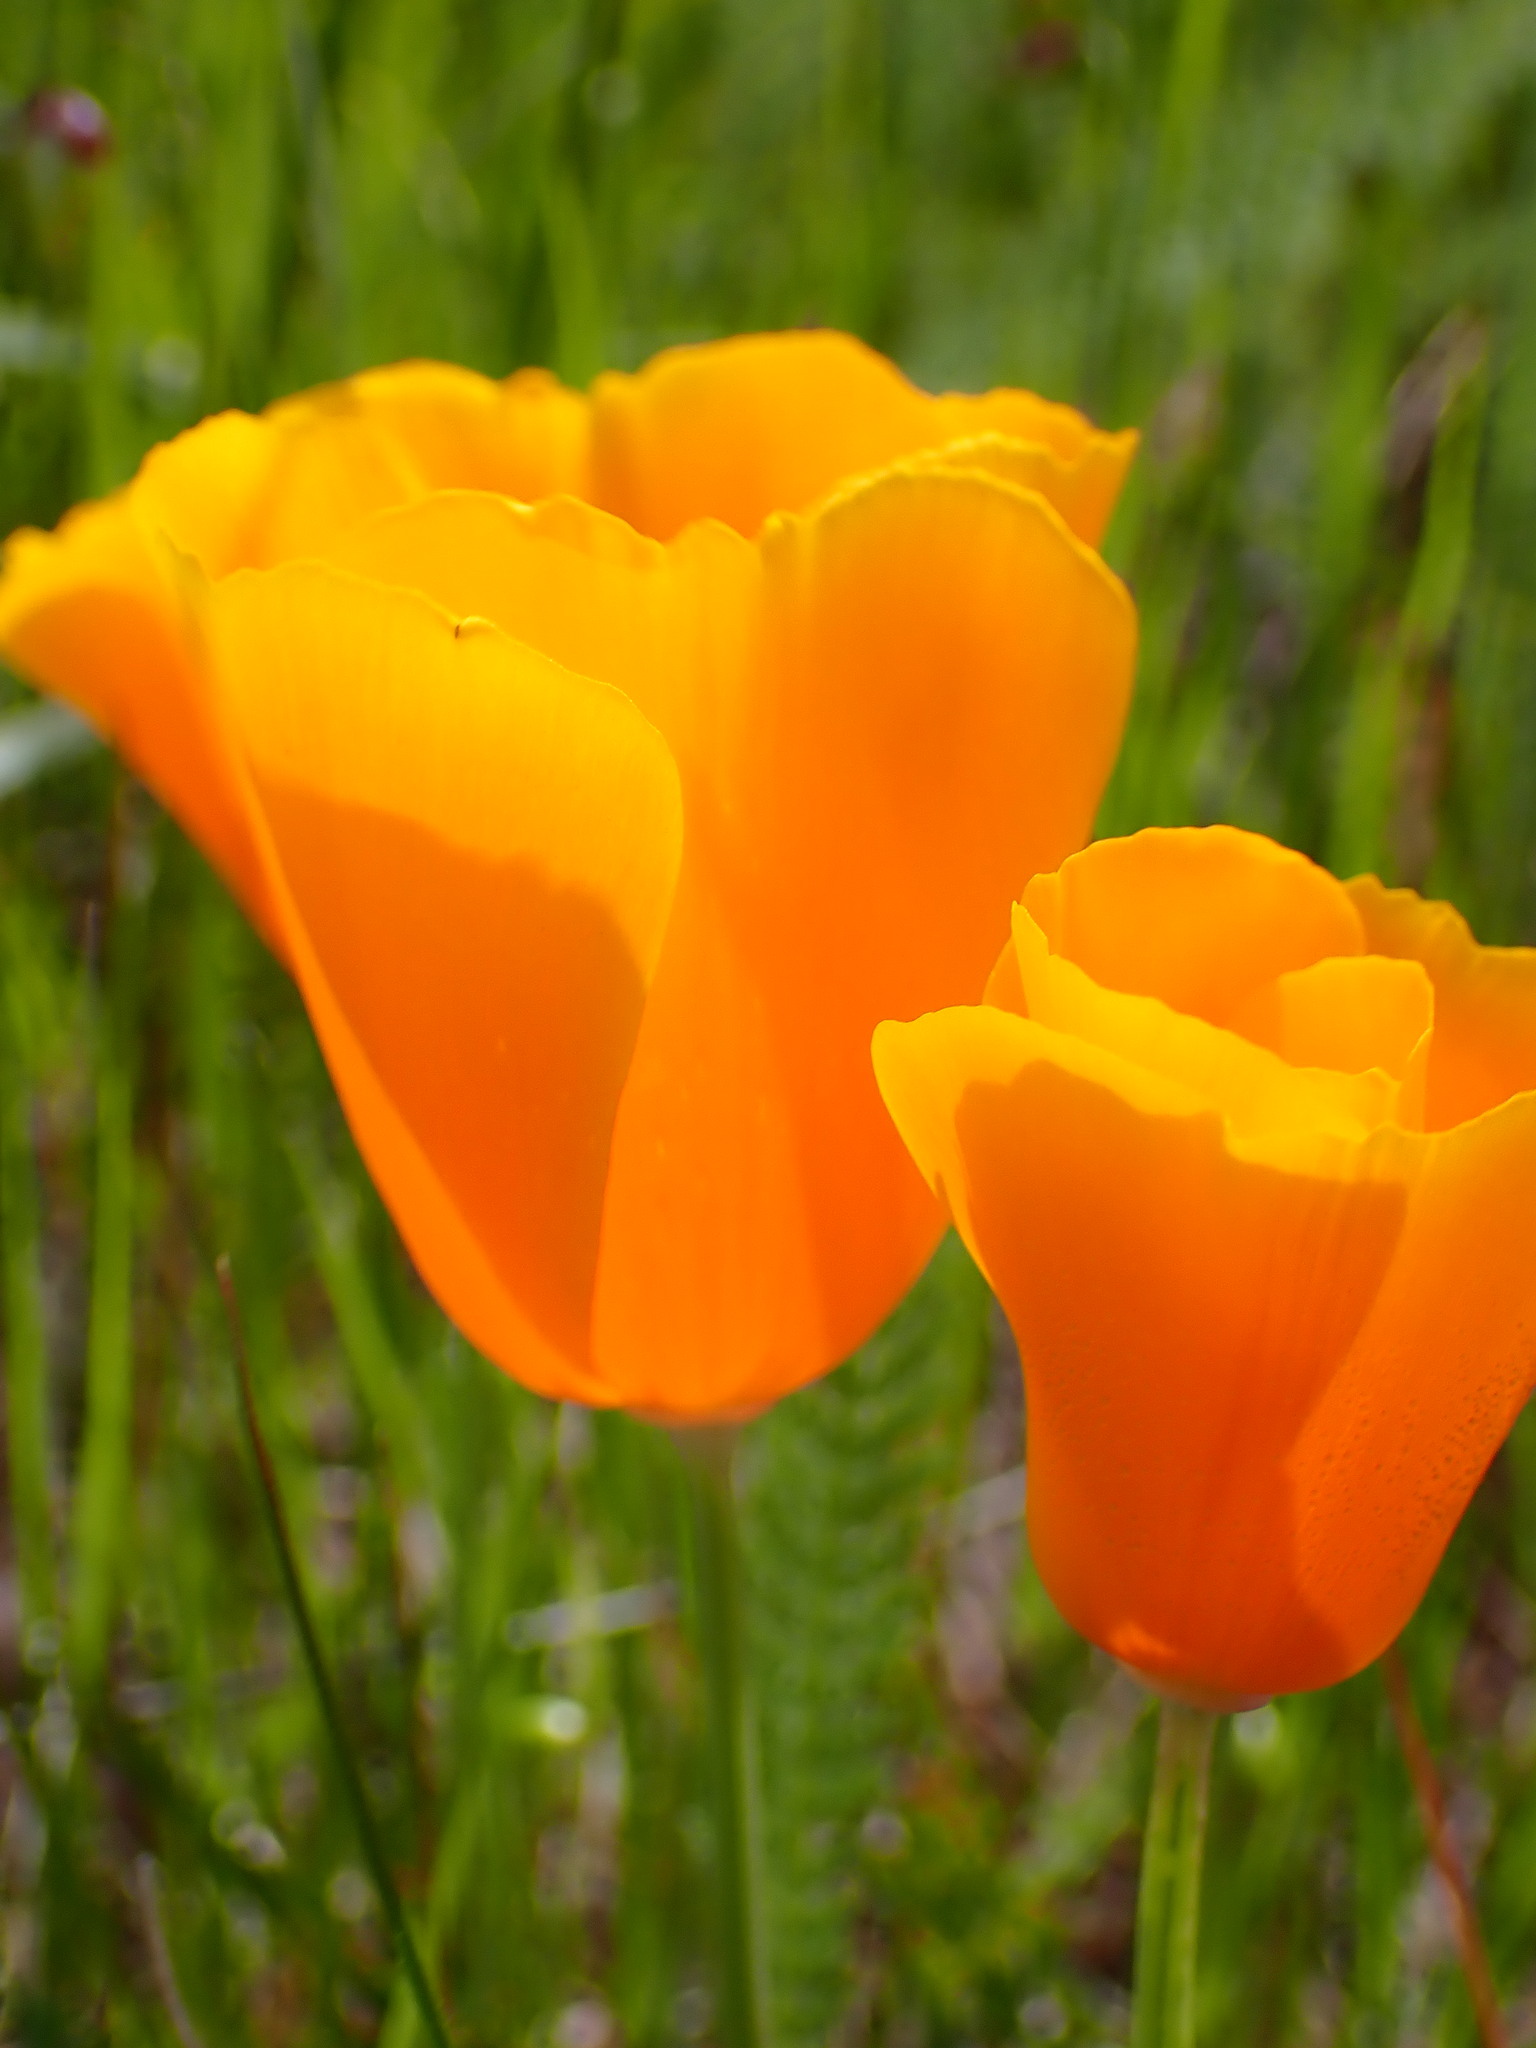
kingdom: Plantae
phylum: Tracheophyta
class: Magnoliopsida
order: Ranunculales
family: Papaveraceae
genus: Eschscholzia
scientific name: Eschscholzia californica
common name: California poppy
